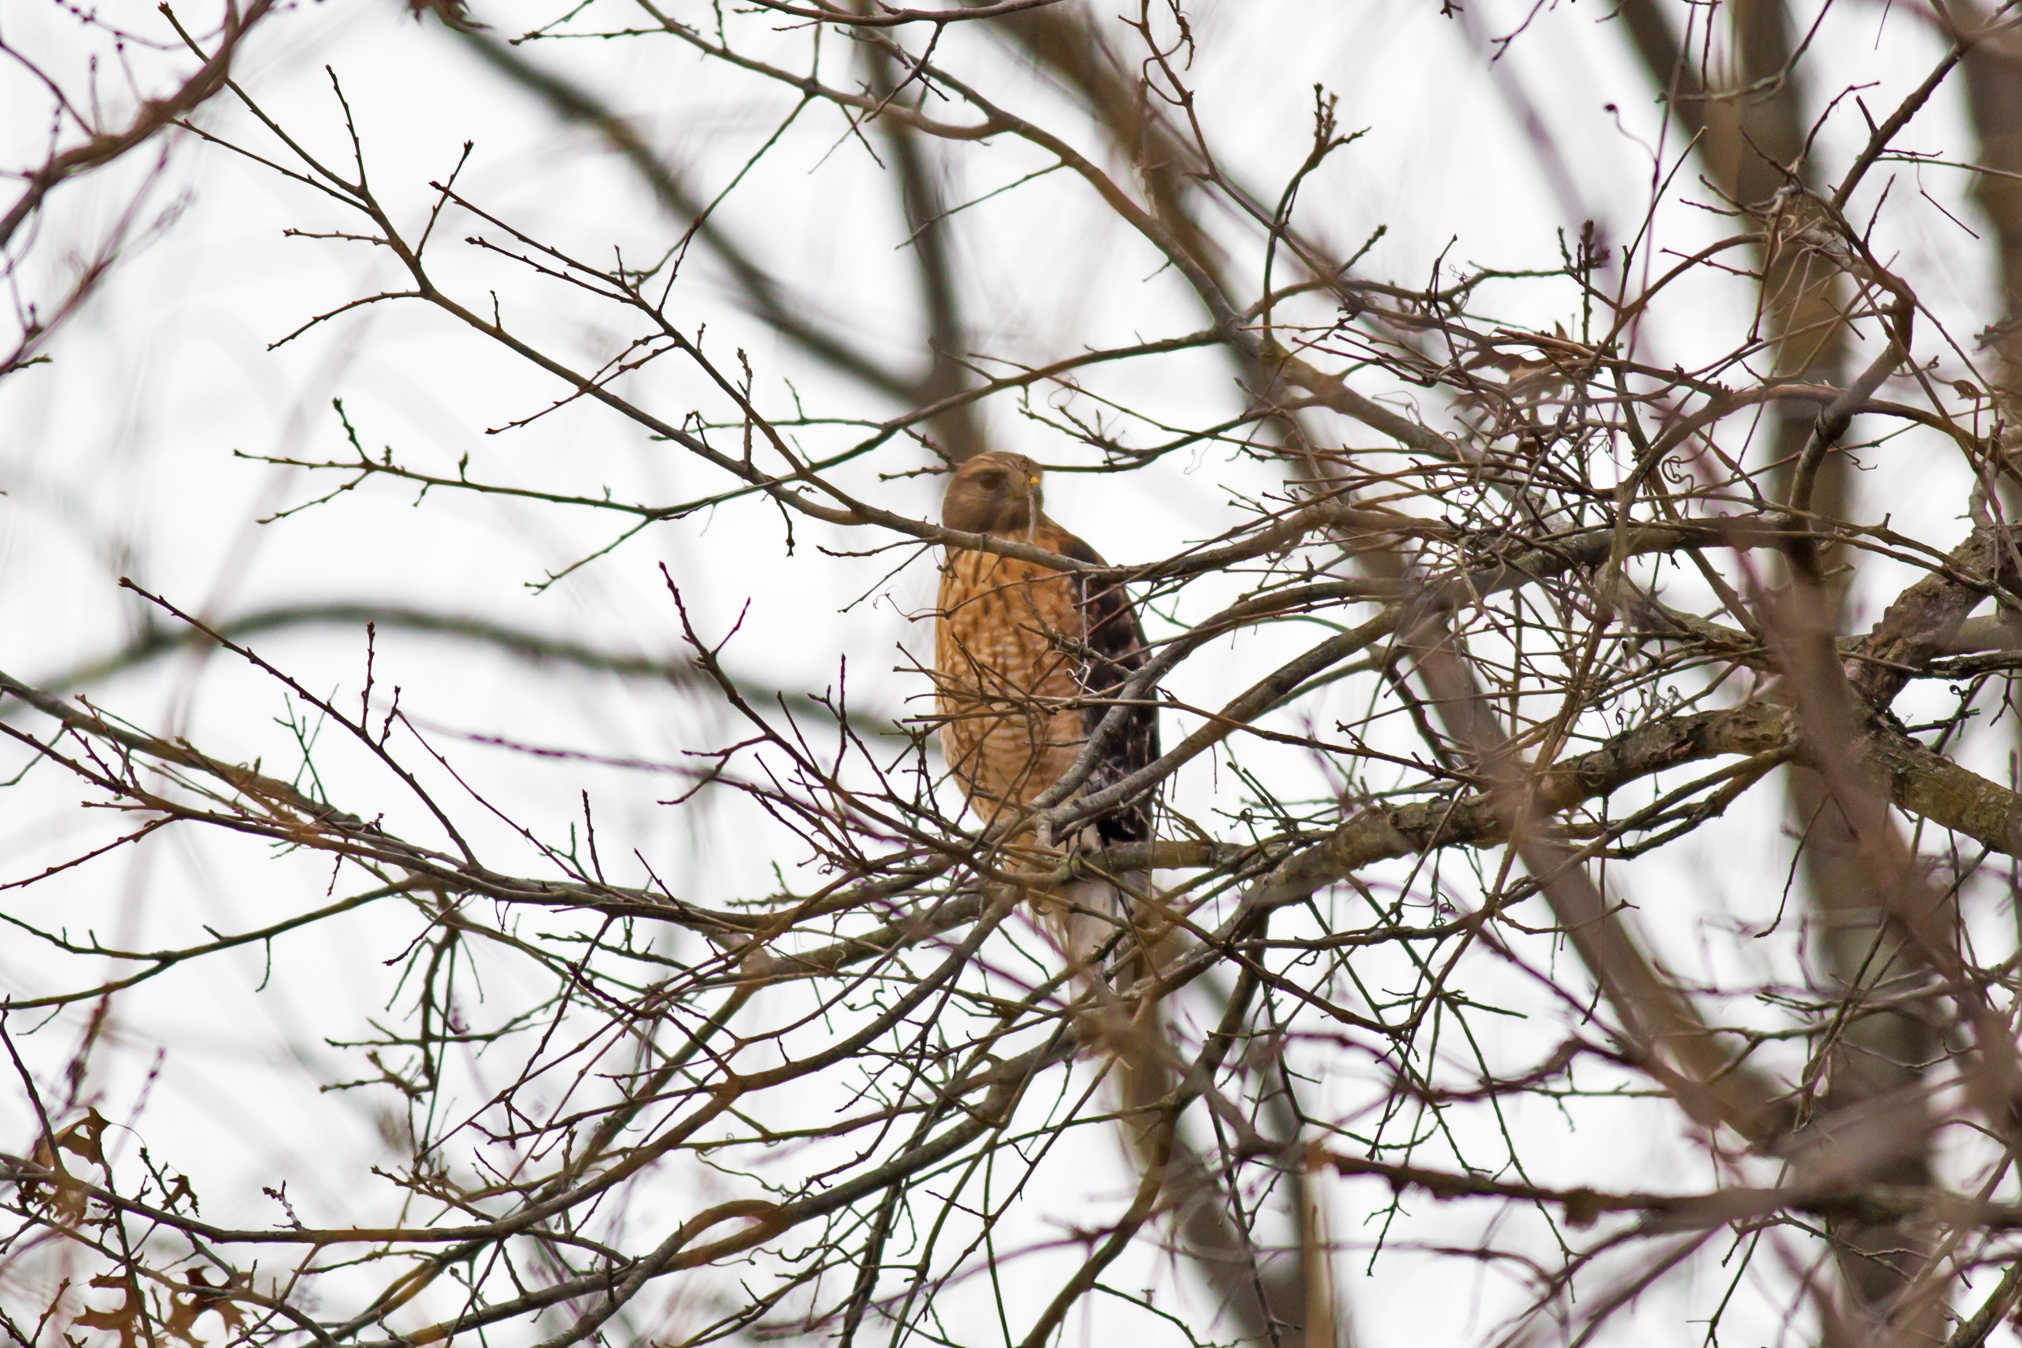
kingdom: Animalia
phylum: Chordata
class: Aves
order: Accipitriformes
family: Accipitridae
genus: Buteo
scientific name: Buteo lineatus
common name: Red-shouldered hawk
